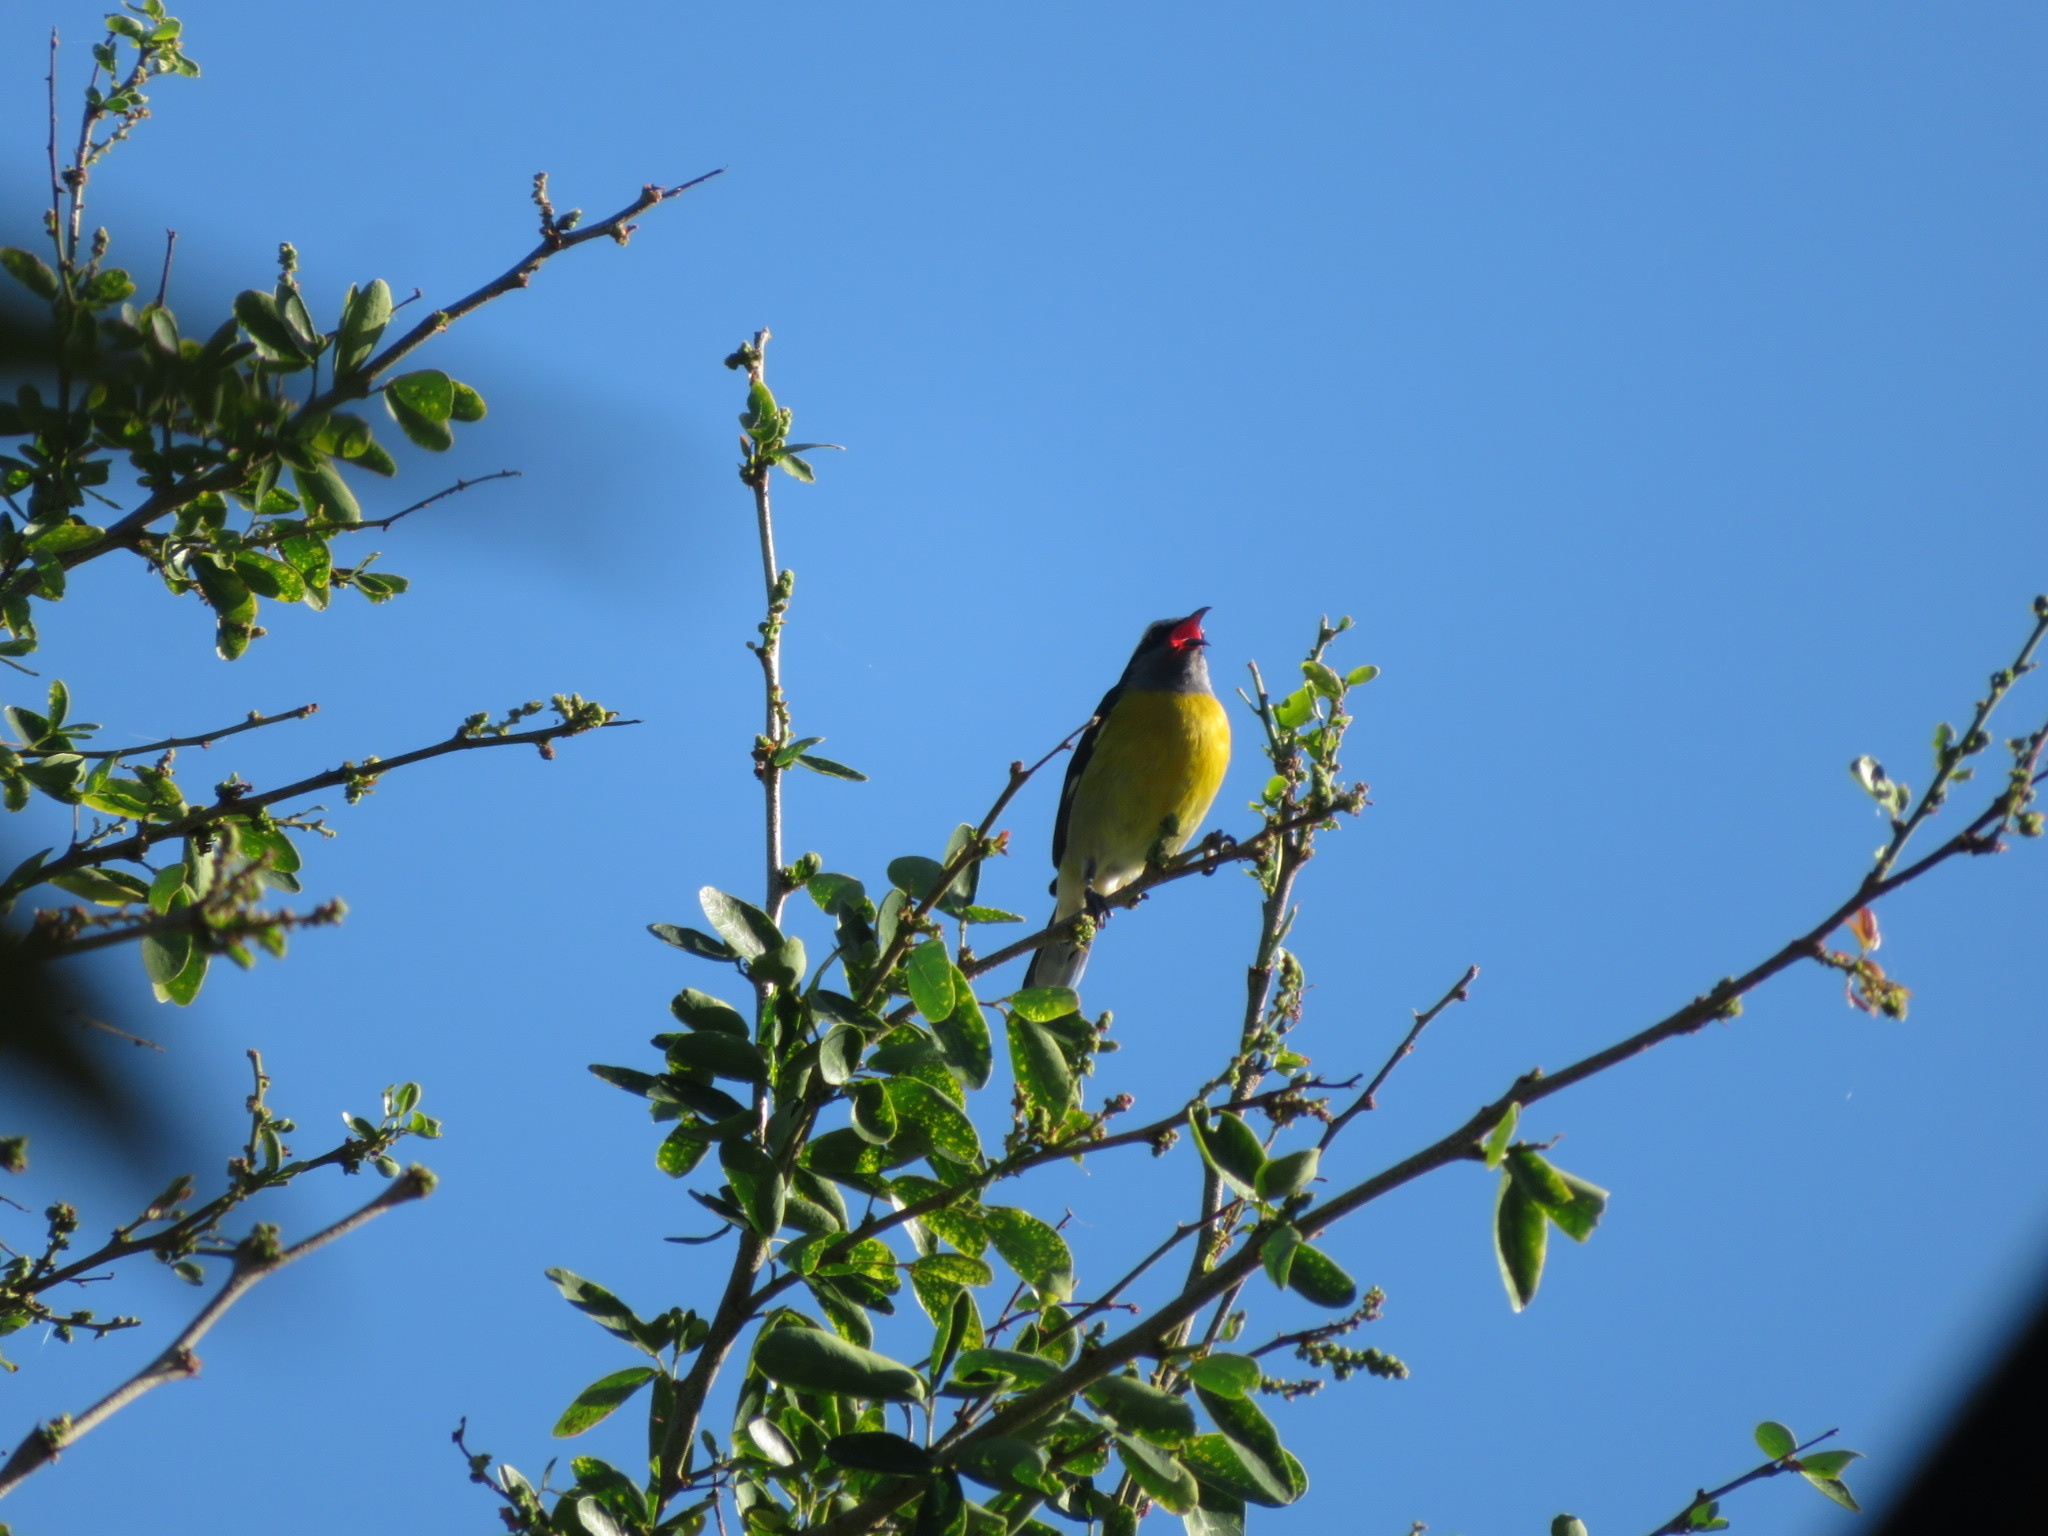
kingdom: Animalia
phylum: Chordata
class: Aves
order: Passeriformes
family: Thraupidae
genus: Coereba
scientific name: Coereba flaveola
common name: Bananaquit
